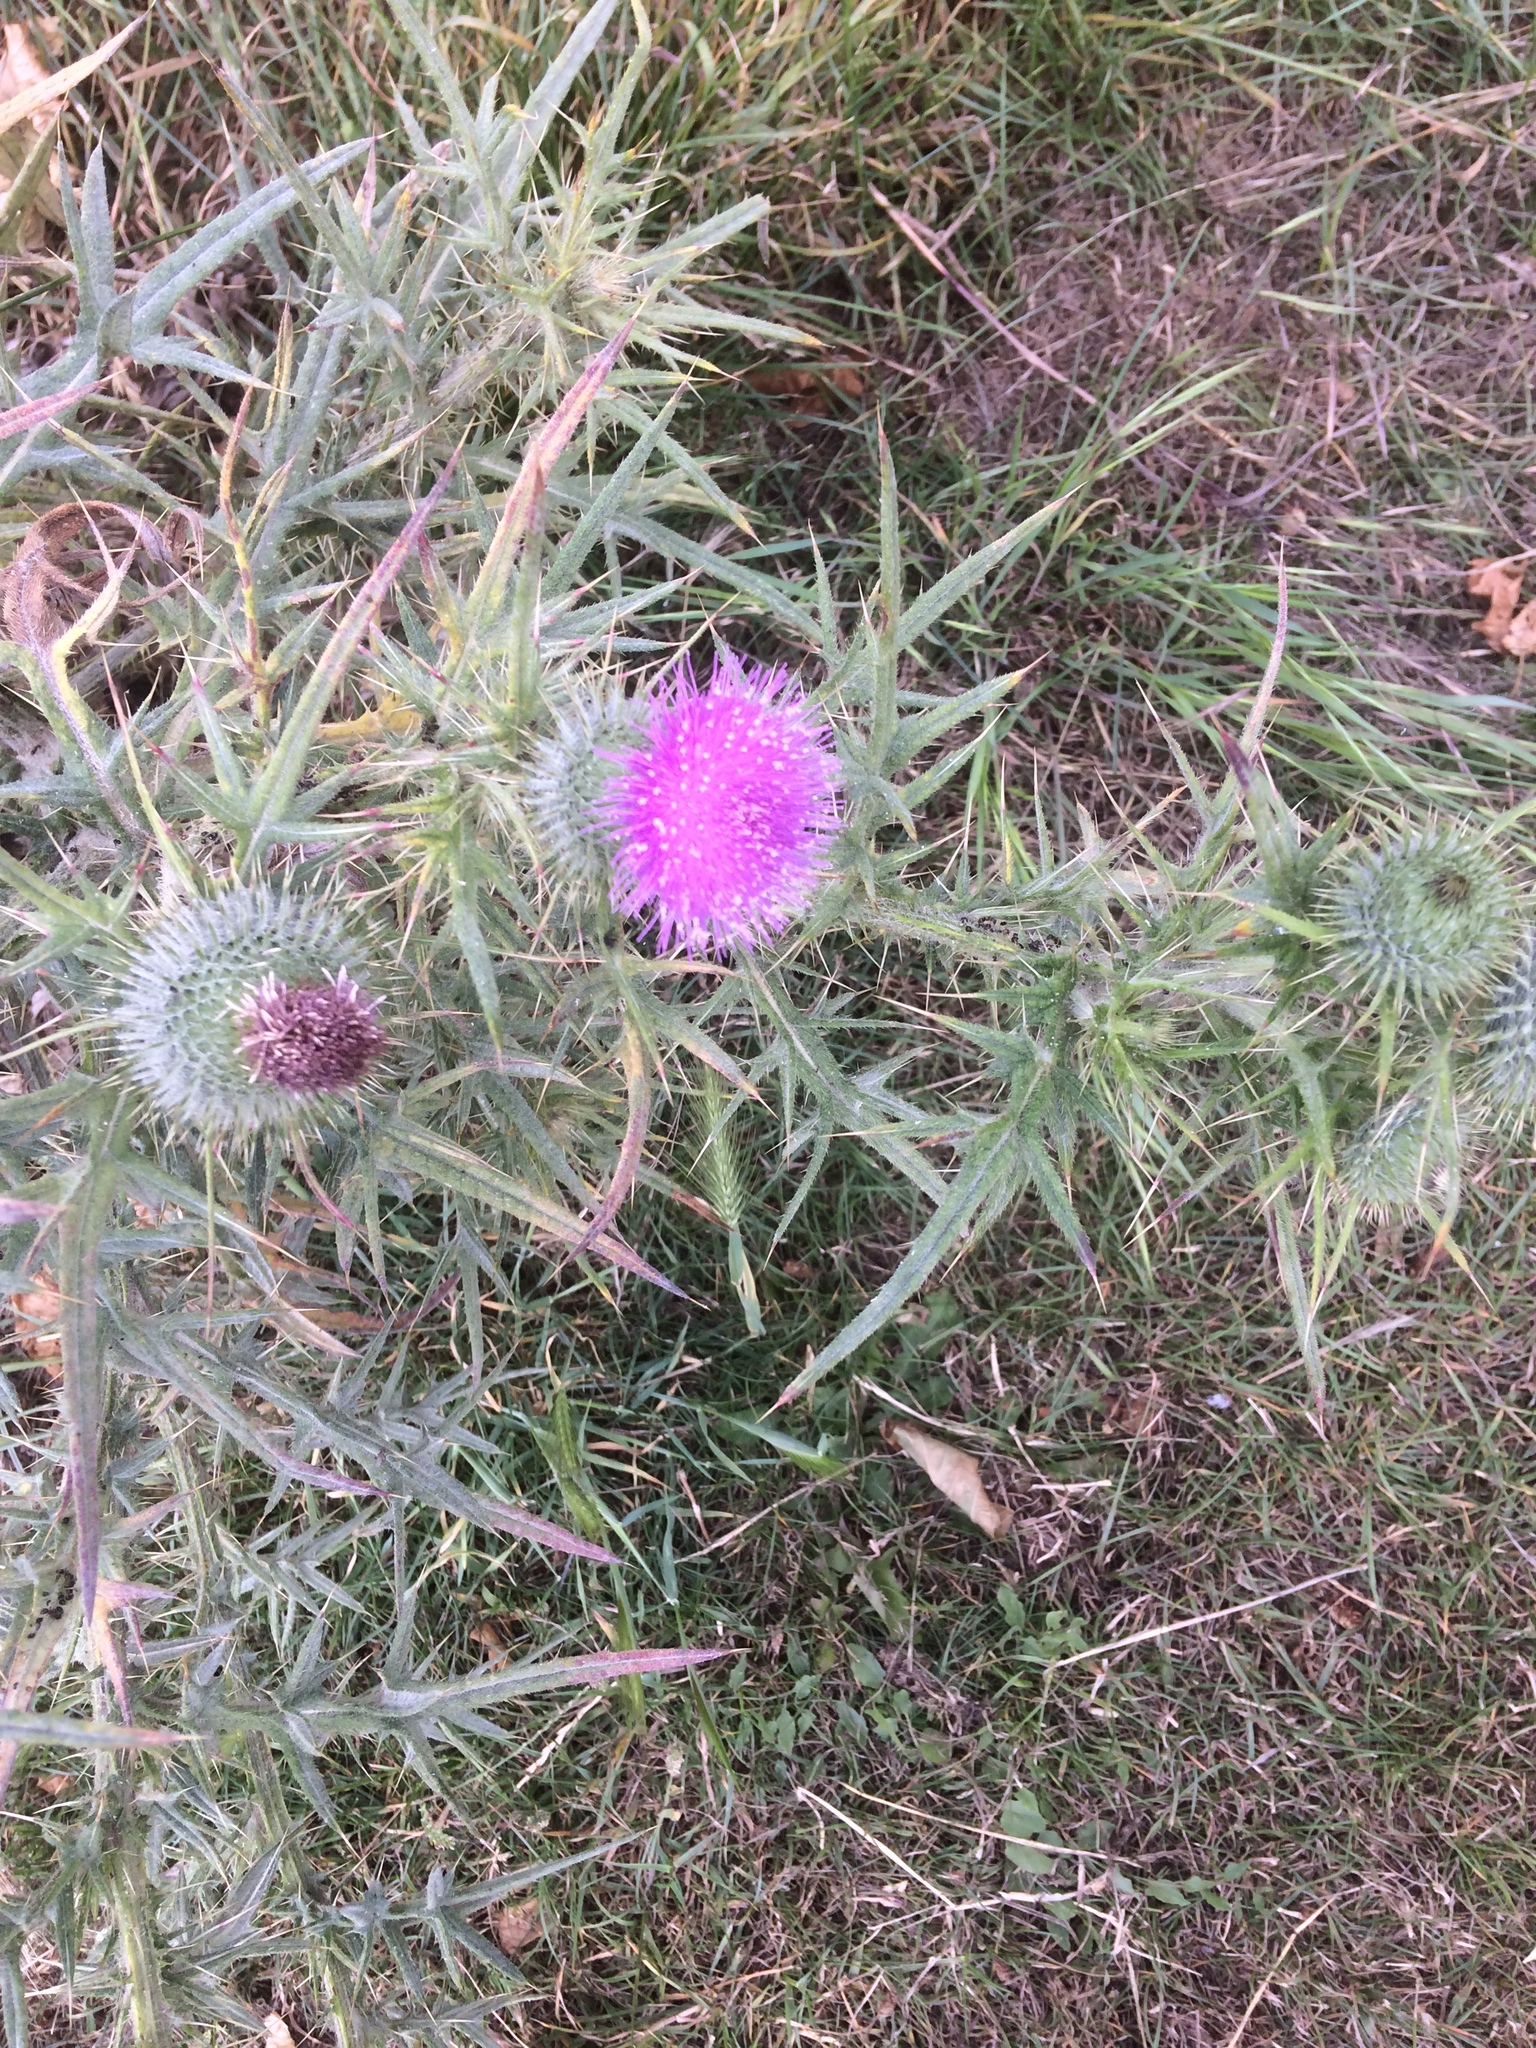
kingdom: Plantae
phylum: Tracheophyta
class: Magnoliopsida
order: Asterales
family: Asteraceae
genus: Cirsium
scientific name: Cirsium vulgare
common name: Bull thistle
